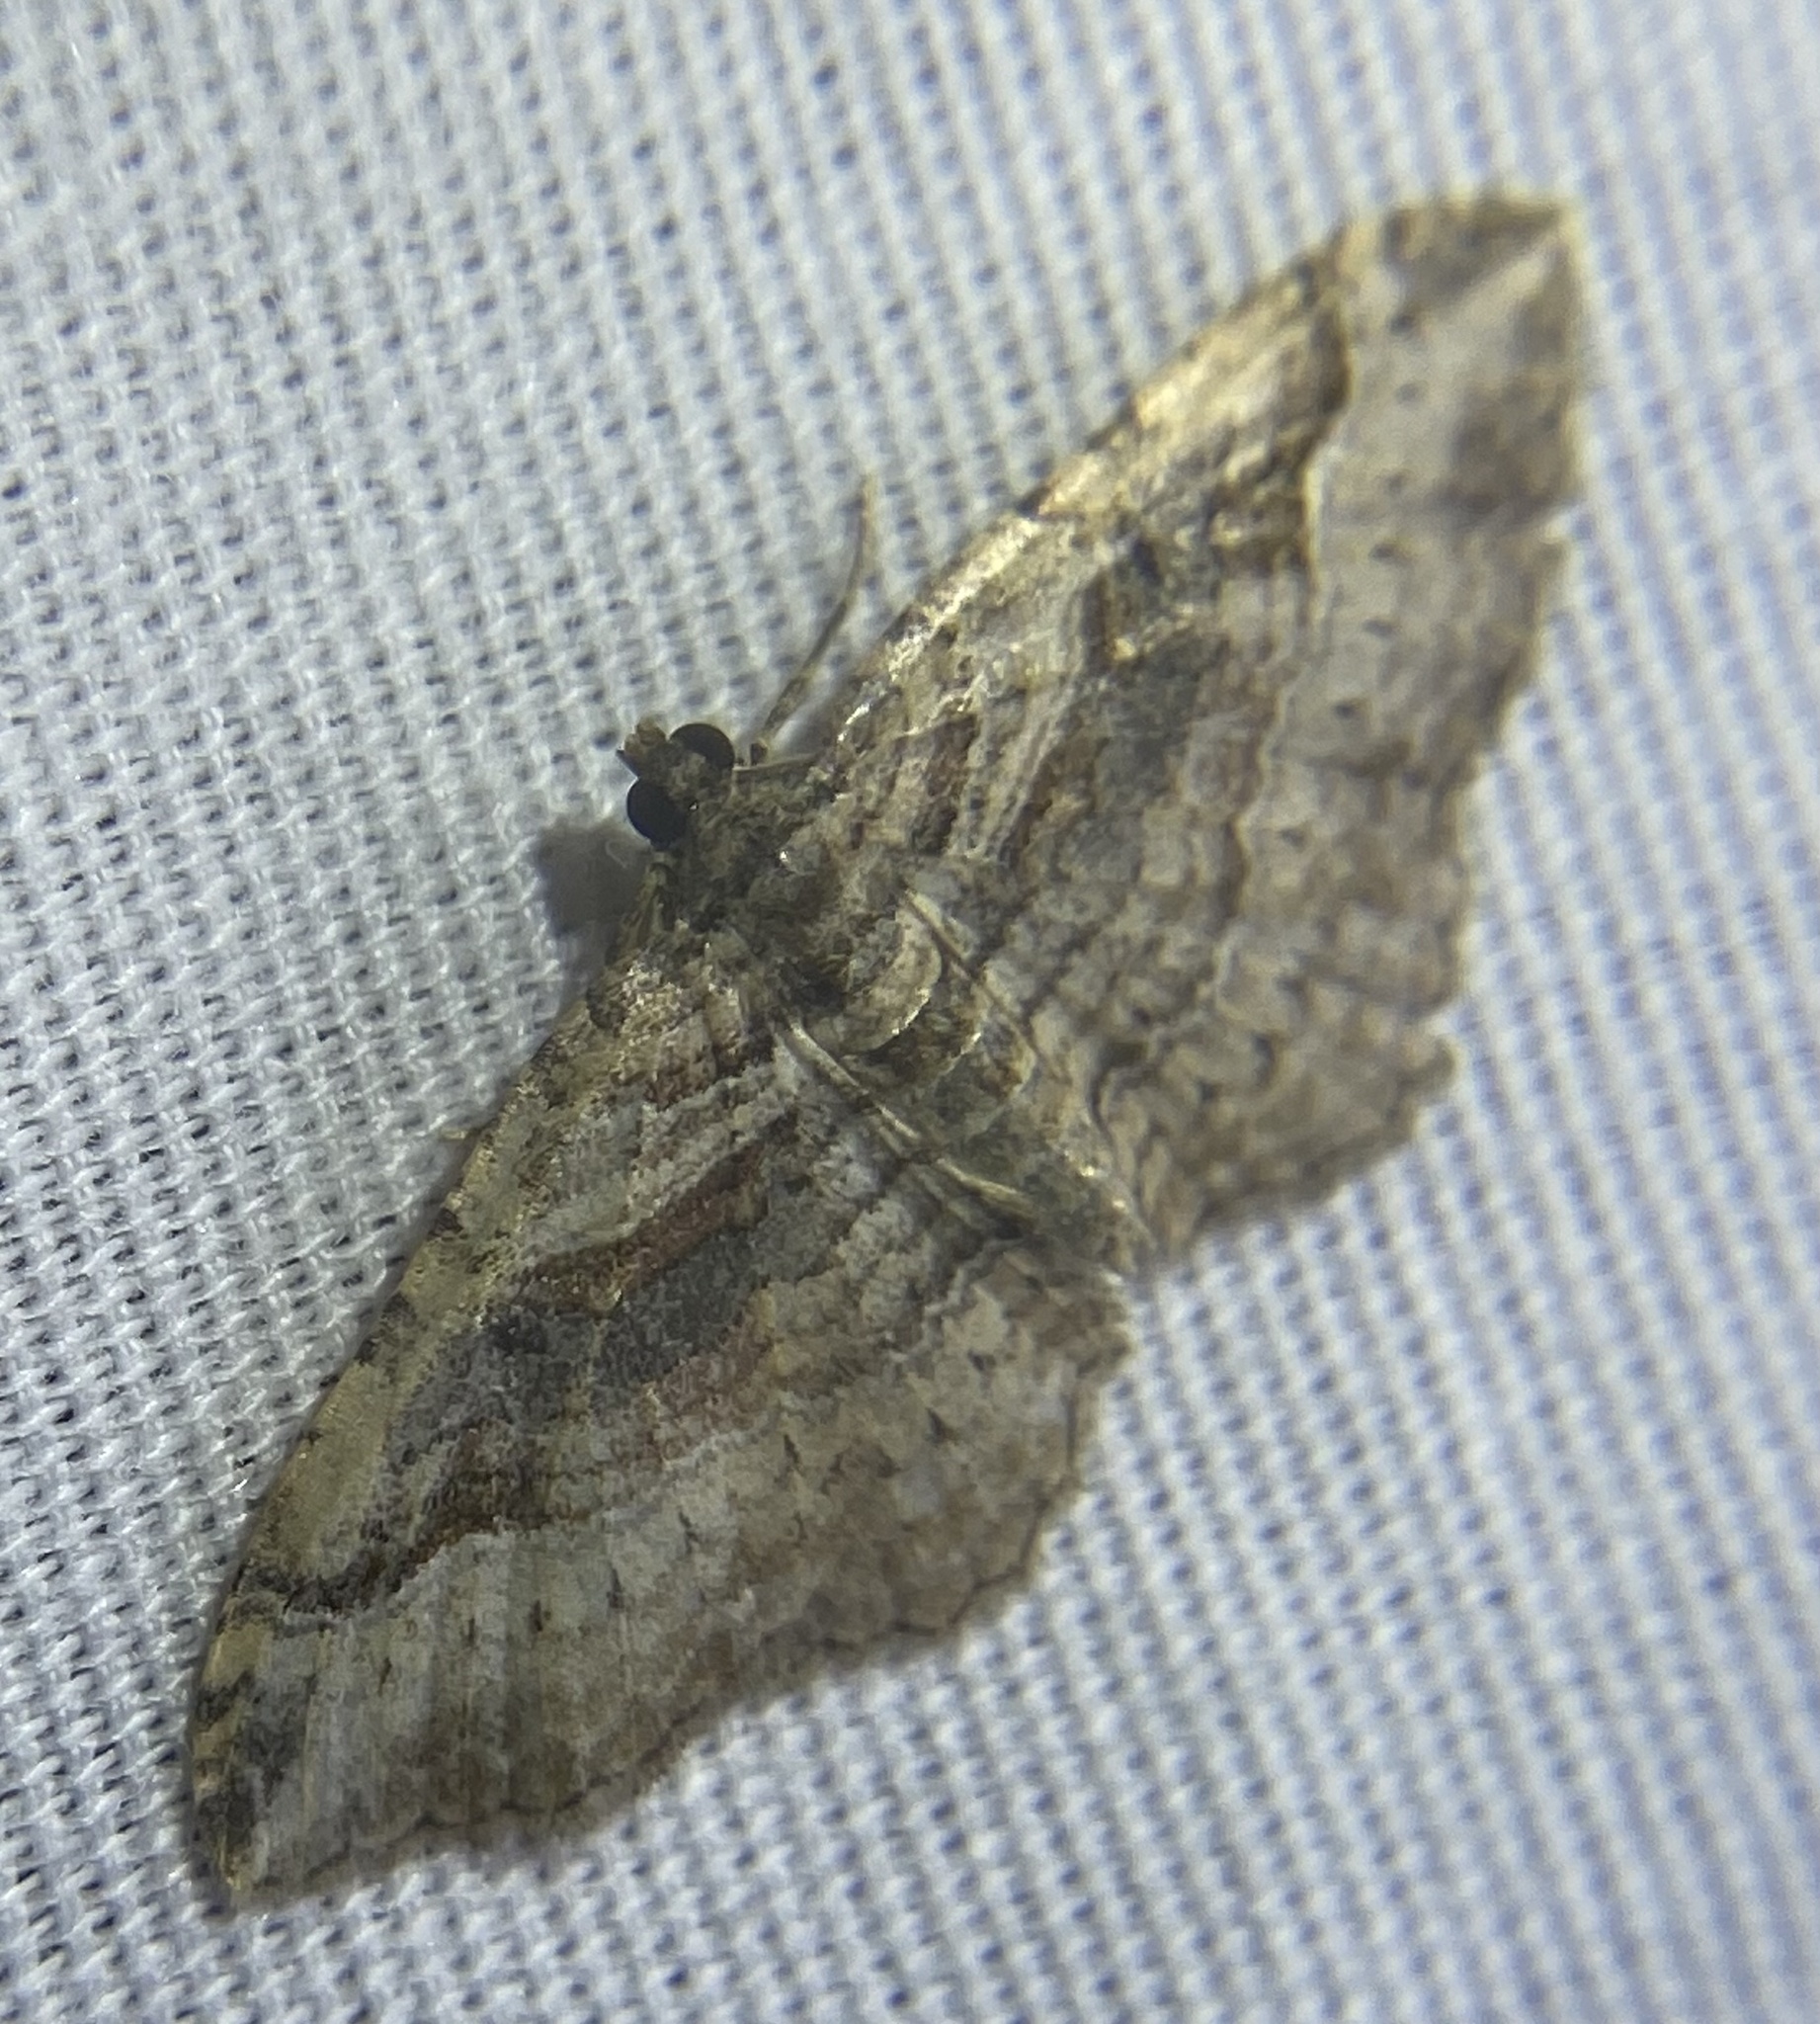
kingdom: Animalia
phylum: Arthropoda
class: Insecta
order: Lepidoptera
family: Geometridae
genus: Costaconvexa
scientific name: Costaconvexa centrostrigaria
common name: Bent-line carpet
